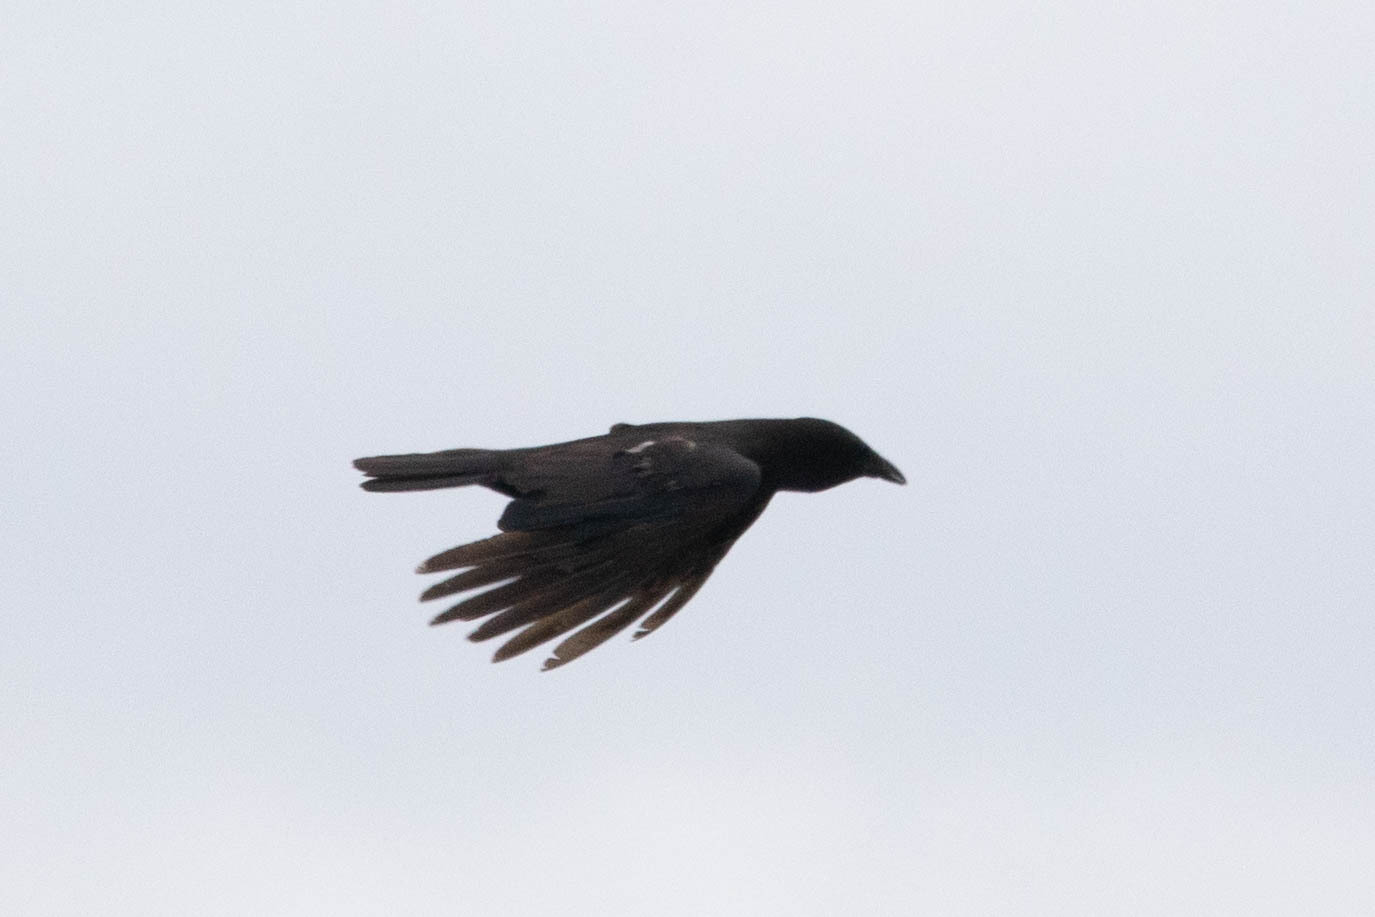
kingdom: Animalia
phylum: Chordata
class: Aves
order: Passeriformes
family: Corvidae
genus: Corvus
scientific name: Corvus brachyrhynchos
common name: American crow
